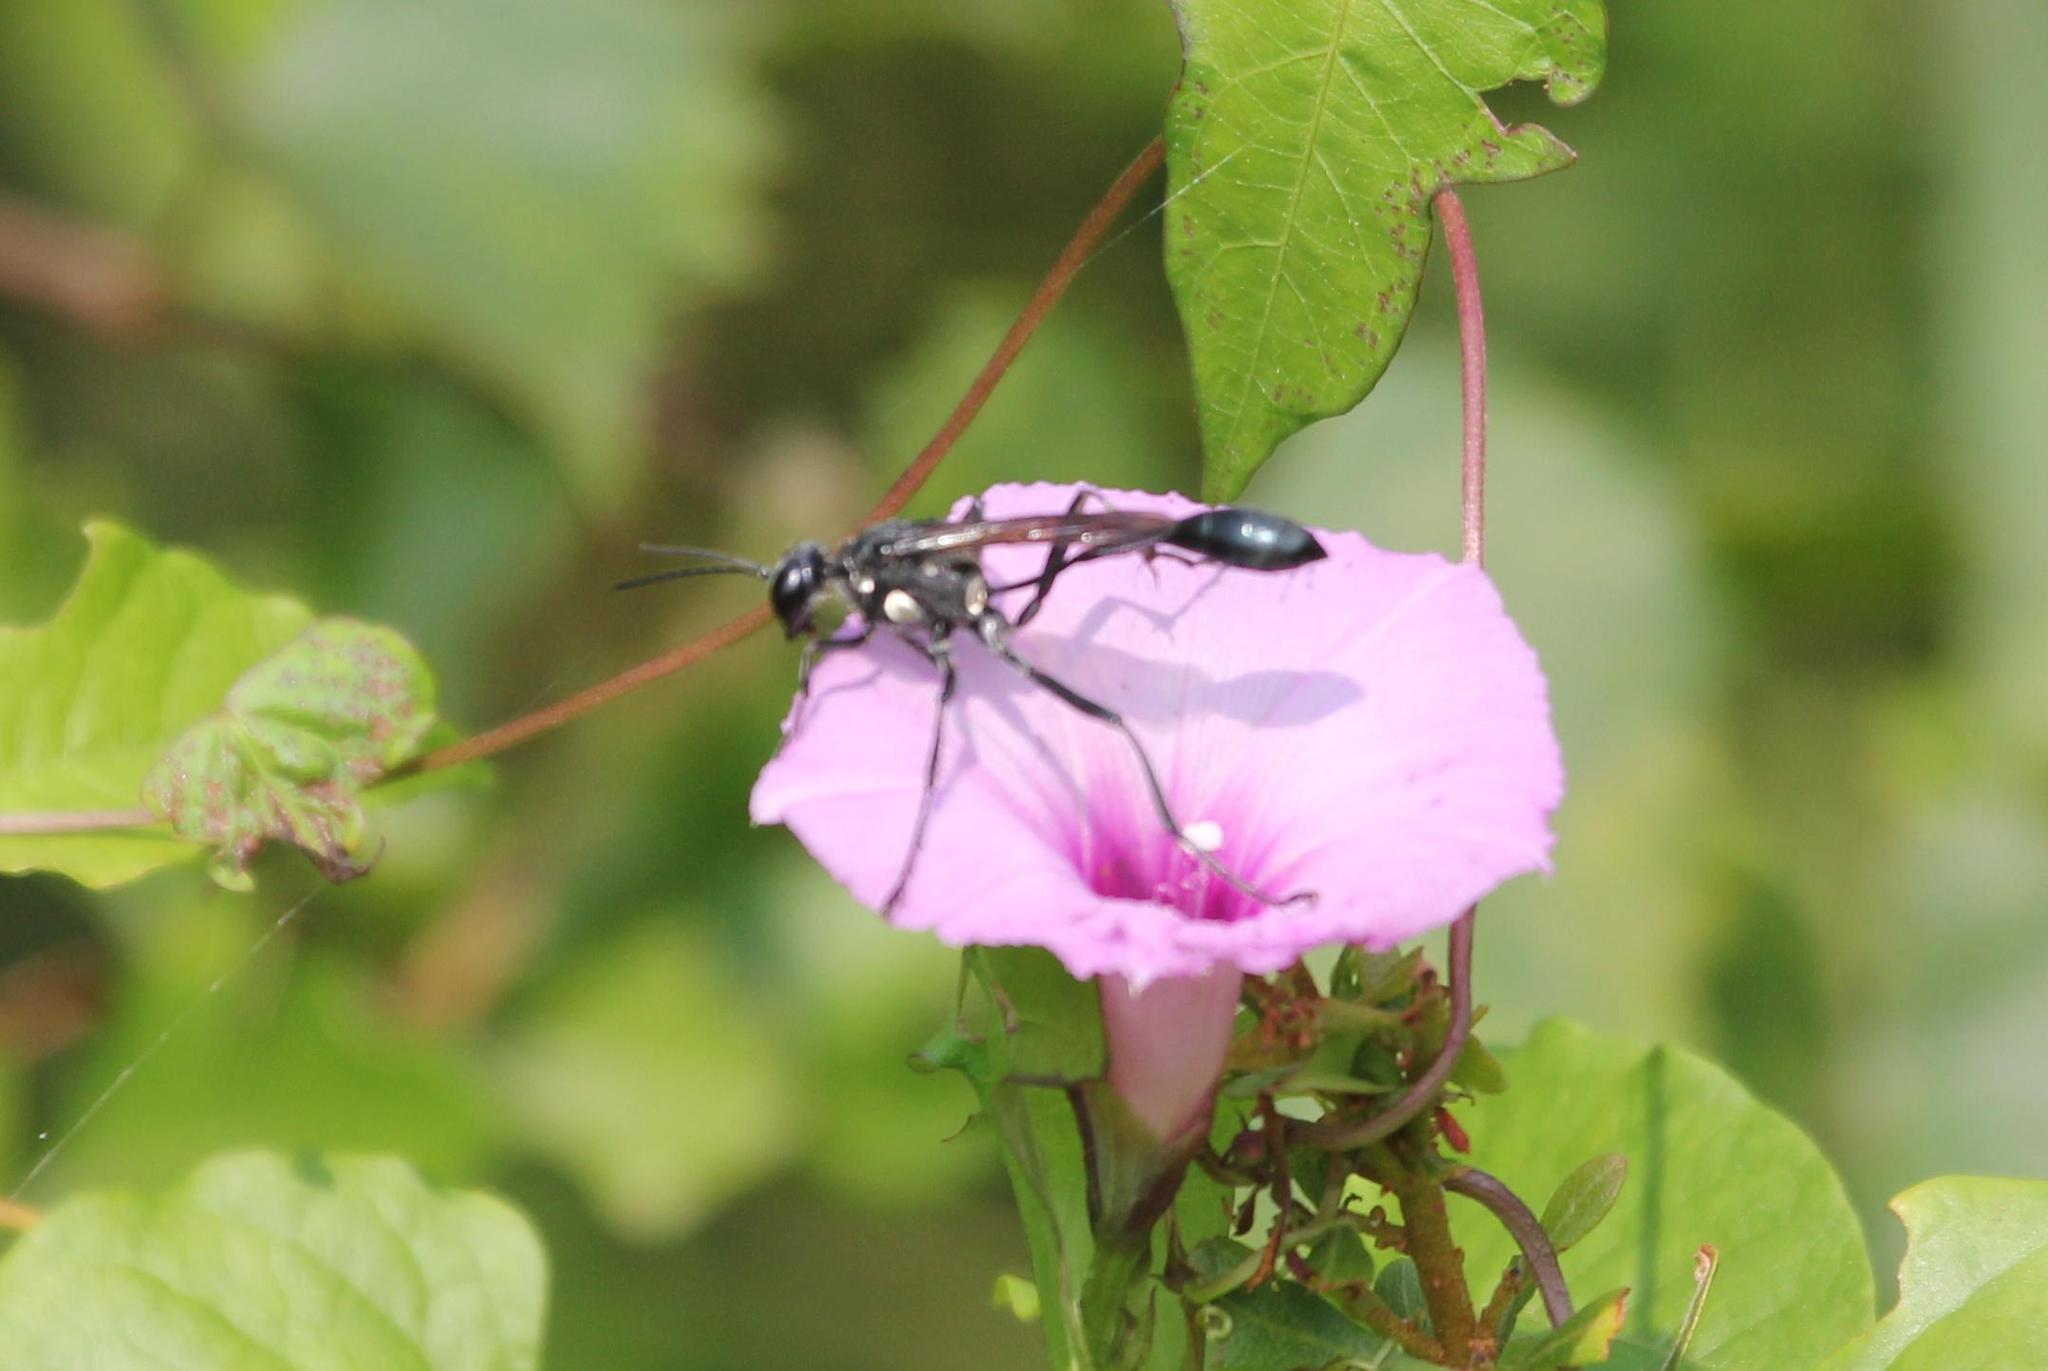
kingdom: Animalia
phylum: Arthropoda
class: Insecta
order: Hymenoptera
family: Sphecidae
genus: Eremnophila
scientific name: Eremnophila aureonotata
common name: Gold-marked thread-waisted wasp
